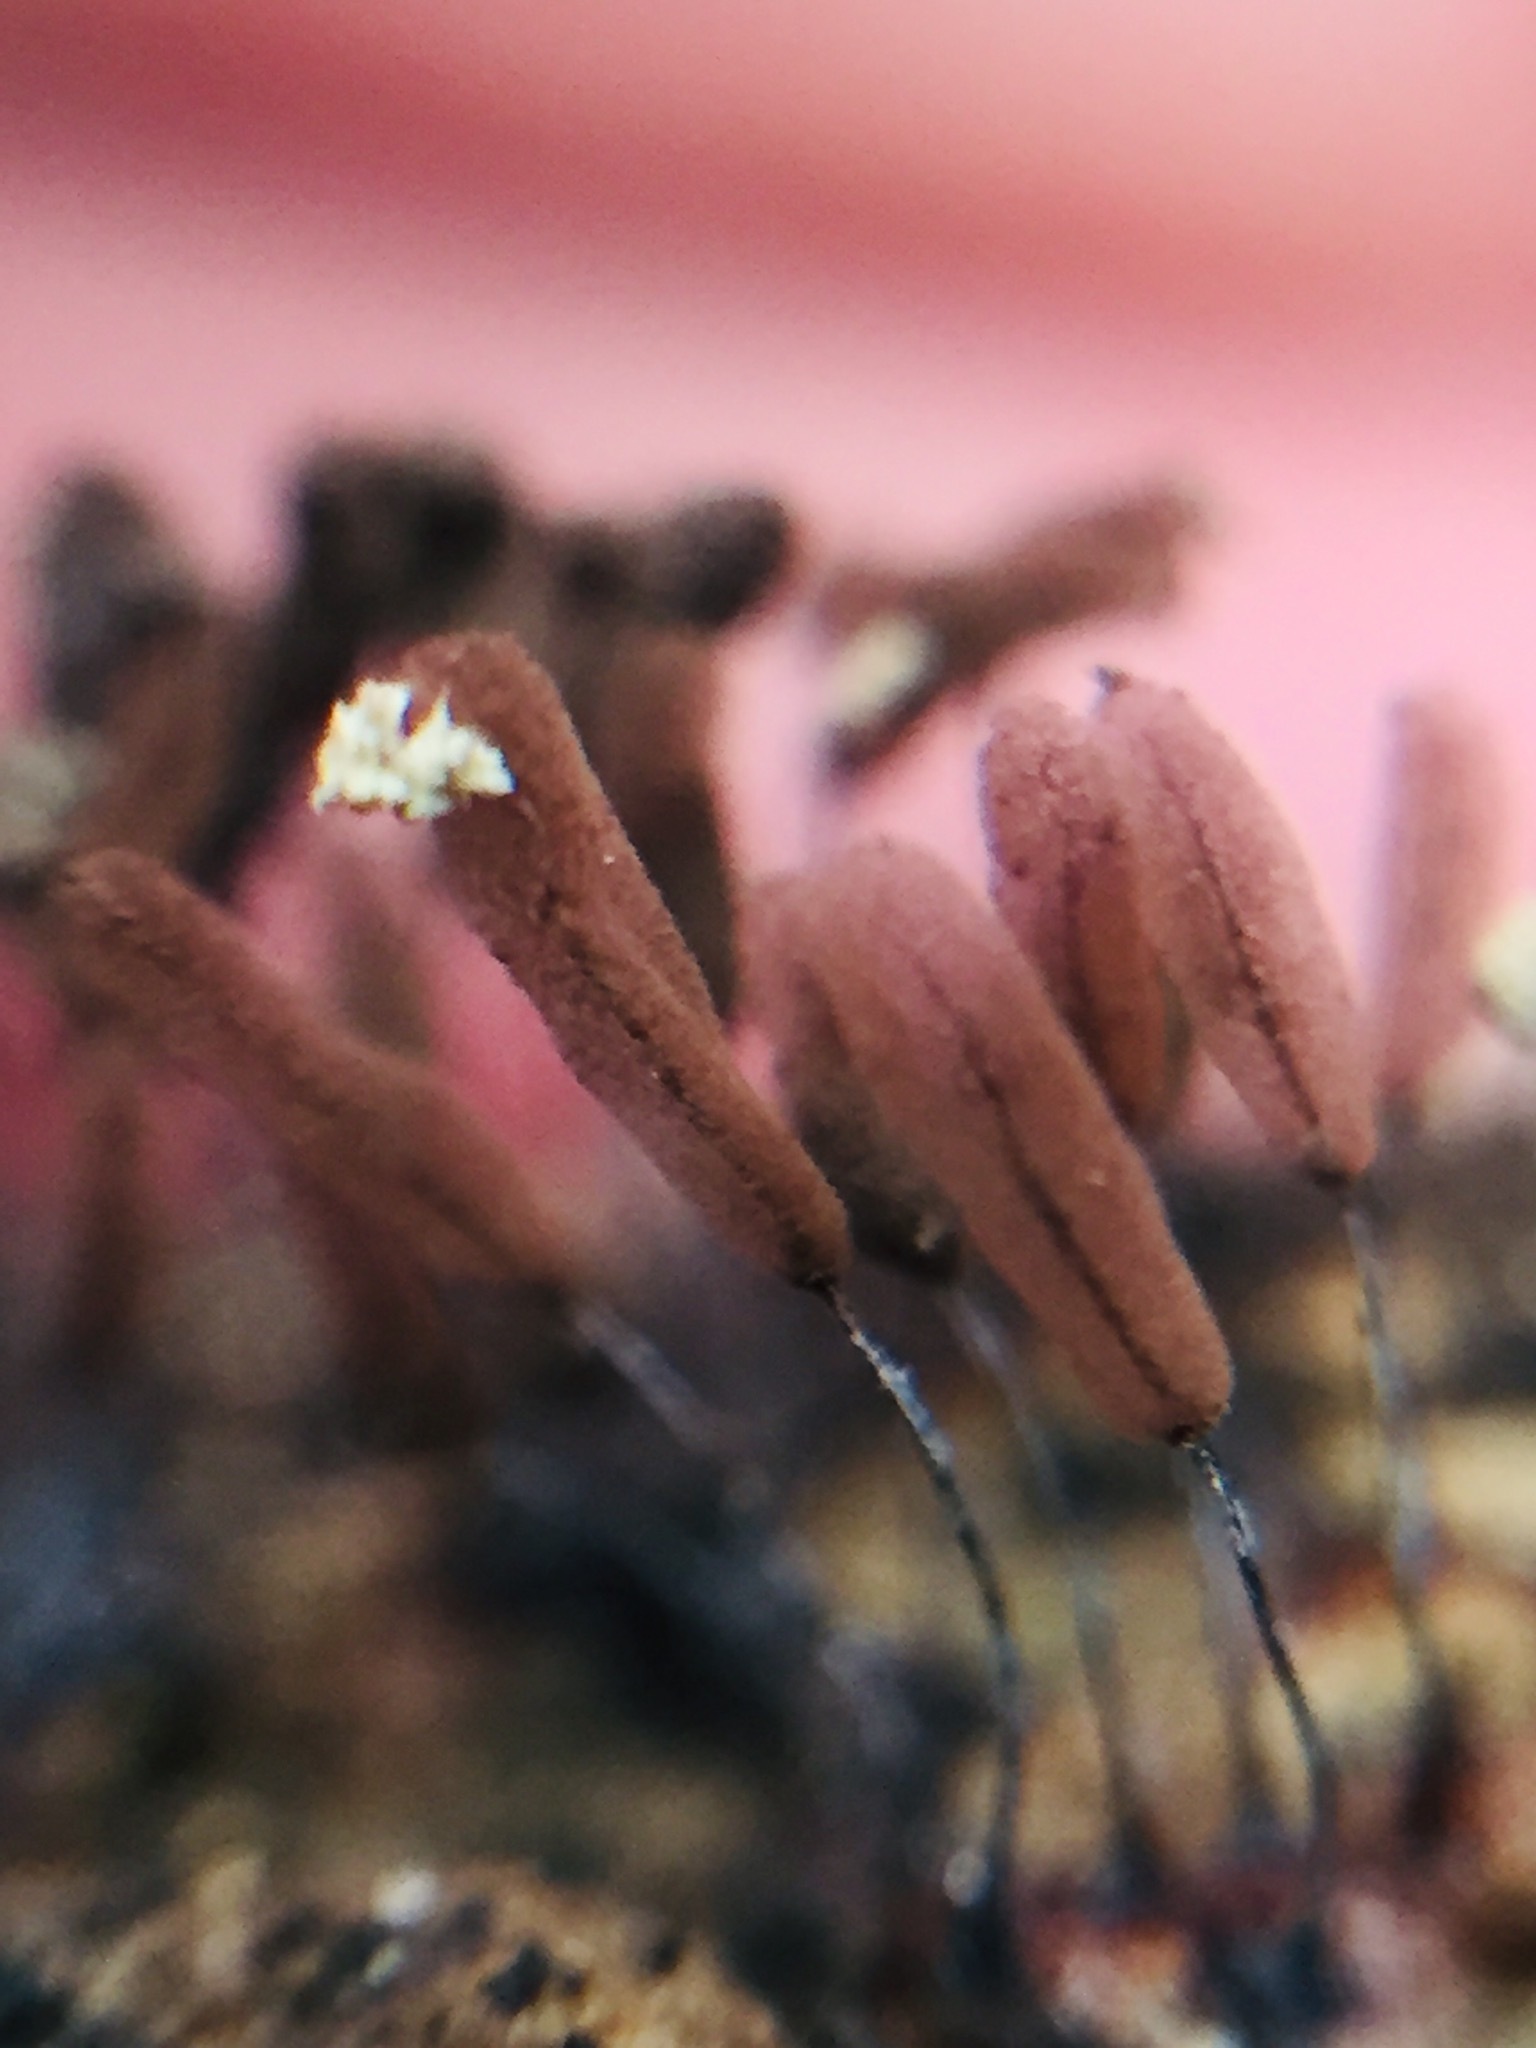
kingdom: Protozoa
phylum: Mycetozoa
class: Myxomycetes
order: Stemonitidales
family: Stemonitidaceae
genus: Stemonitopsis
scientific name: Stemonitopsis typhina
